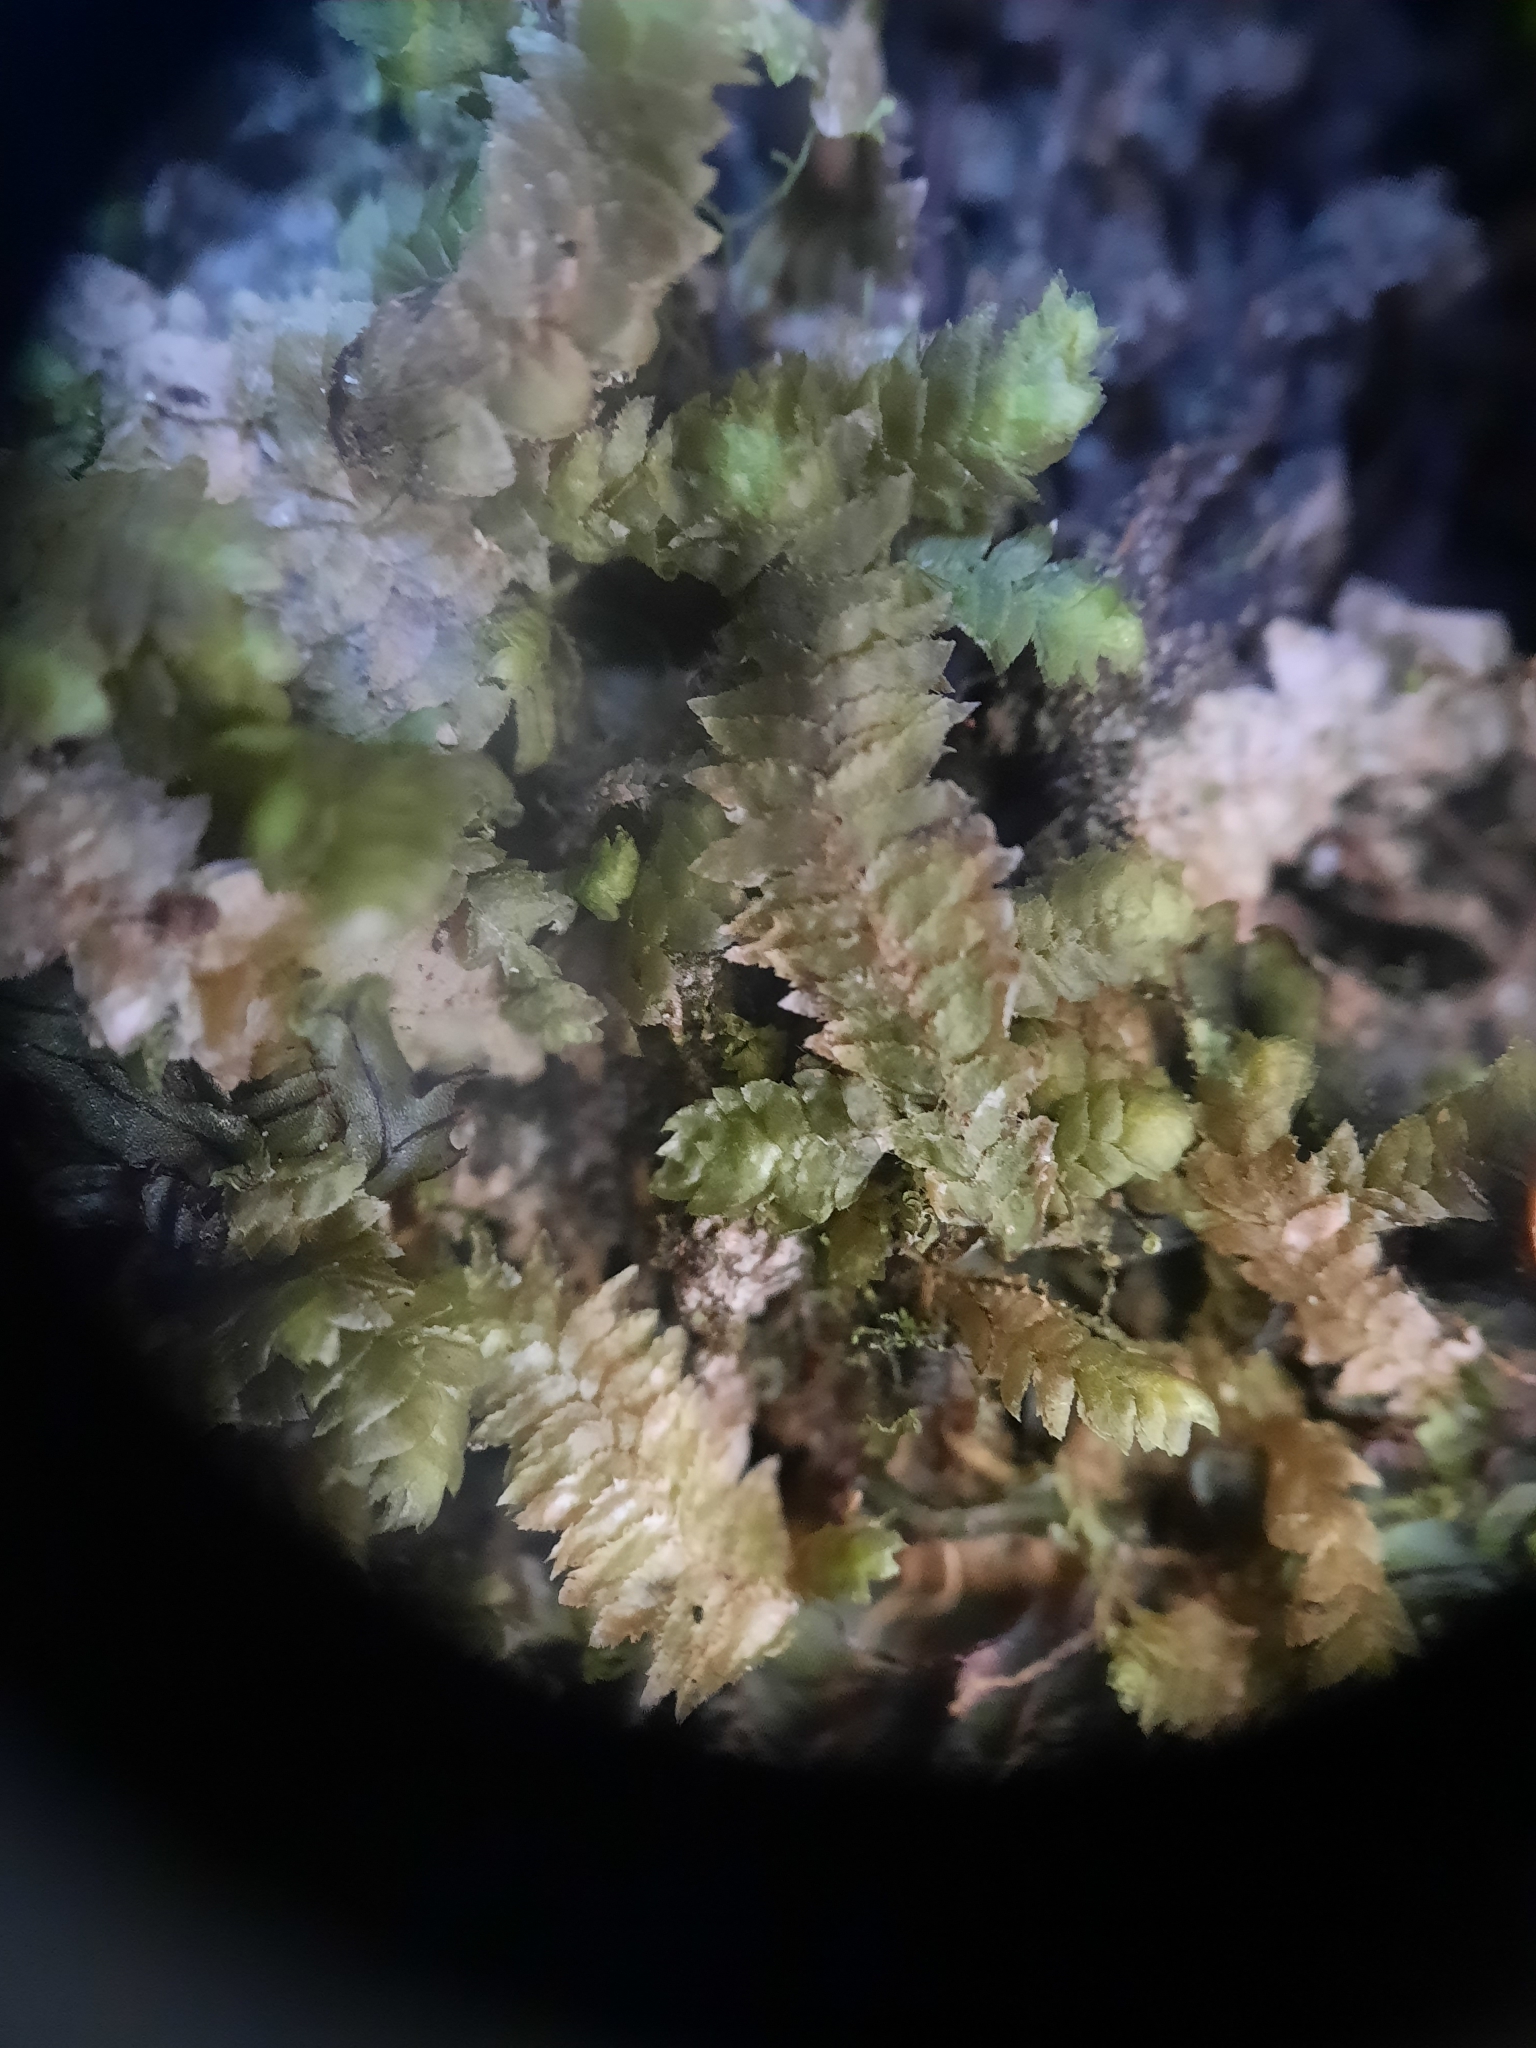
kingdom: Plantae
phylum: Marchantiophyta
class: Jungermanniopsida
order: Jungermanniales
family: Schistochilaceae
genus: Schistochila
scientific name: Schistochila conchophylla
